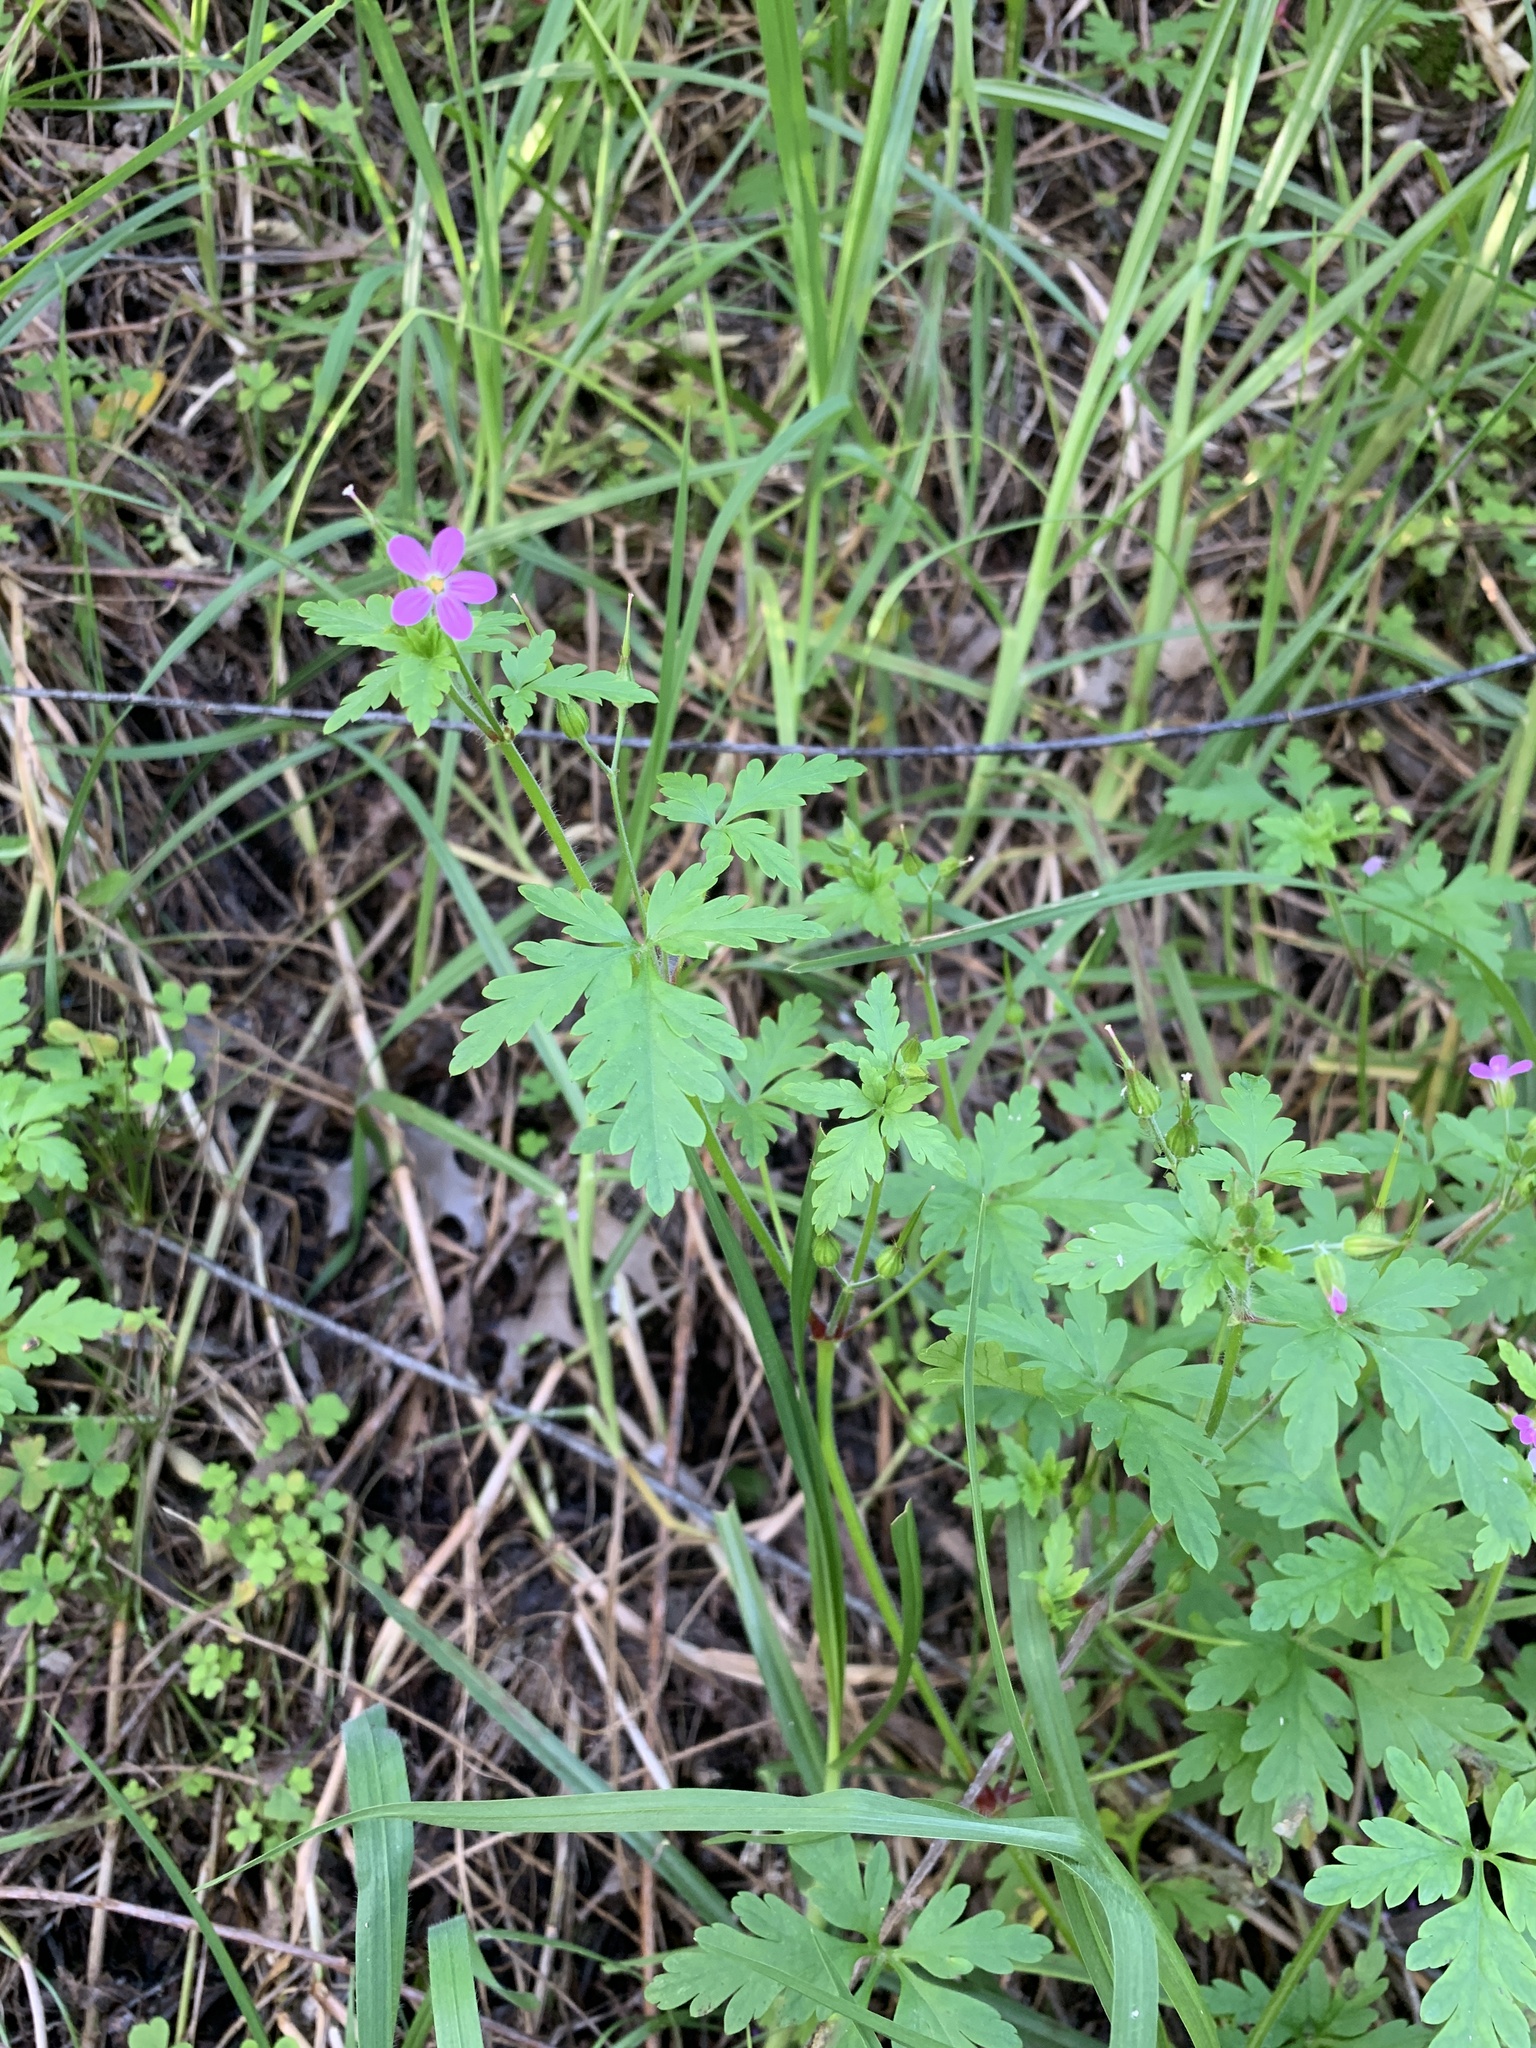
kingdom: Plantae
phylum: Tracheophyta
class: Magnoliopsida
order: Geraniales
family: Geraniaceae
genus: Geranium
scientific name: Geranium purpureum
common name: Little-robin
